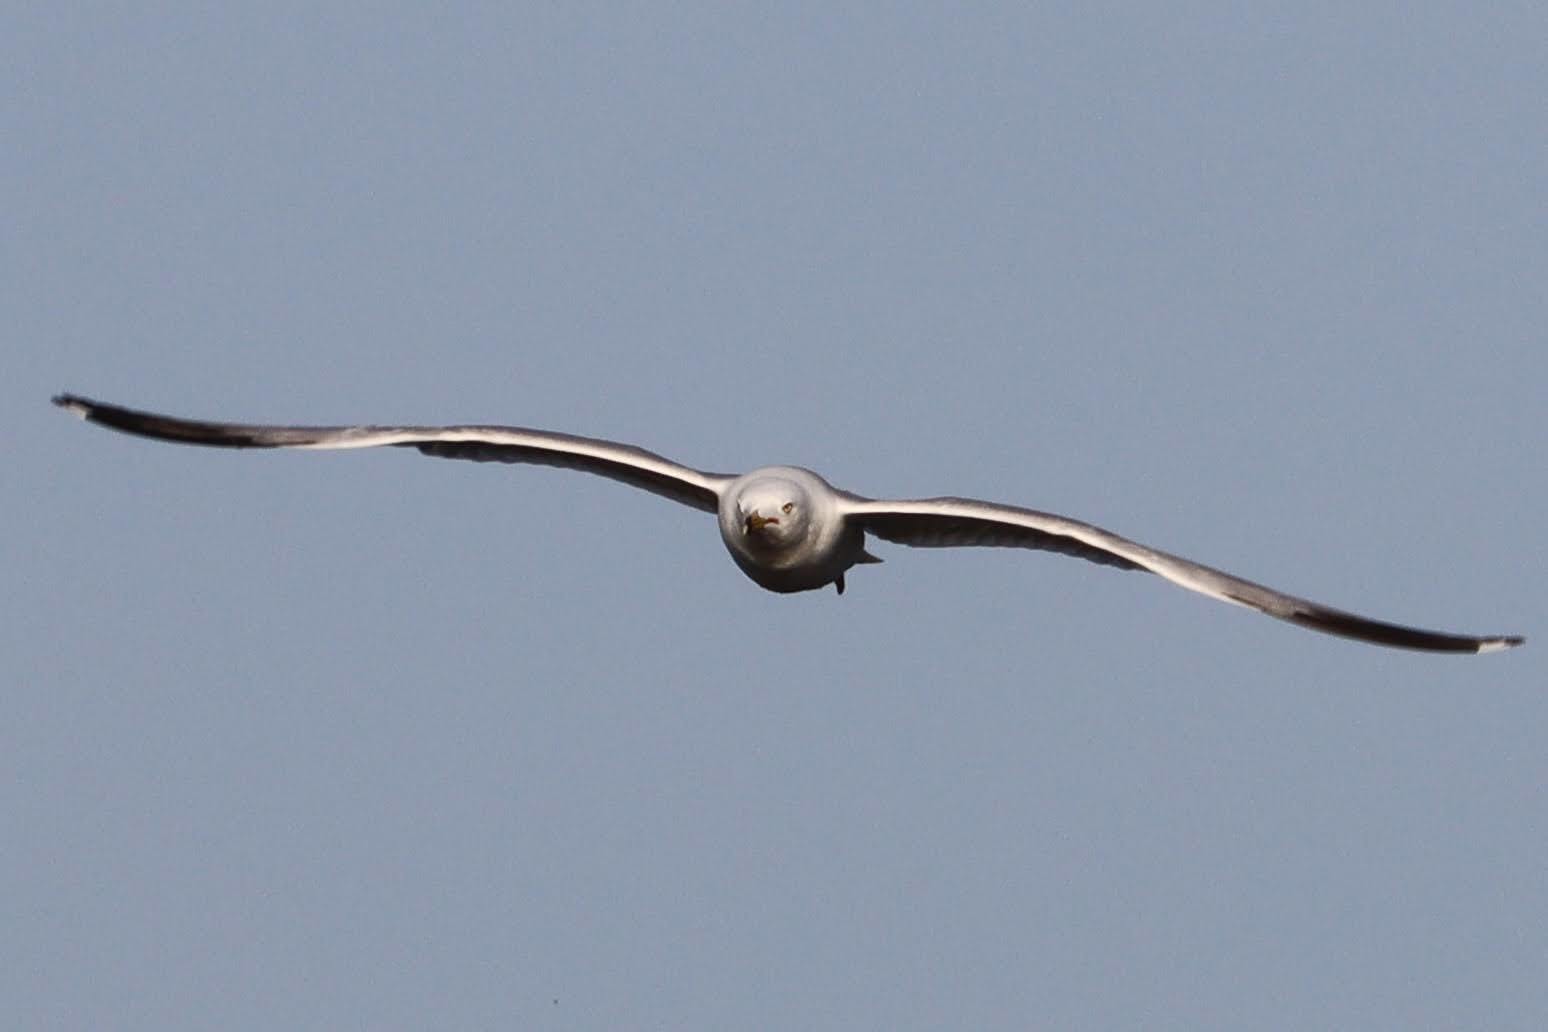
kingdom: Animalia
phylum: Chordata
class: Aves
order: Charadriiformes
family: Laridae
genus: Larus
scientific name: Larus delawarensis
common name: Ring-billed gull
